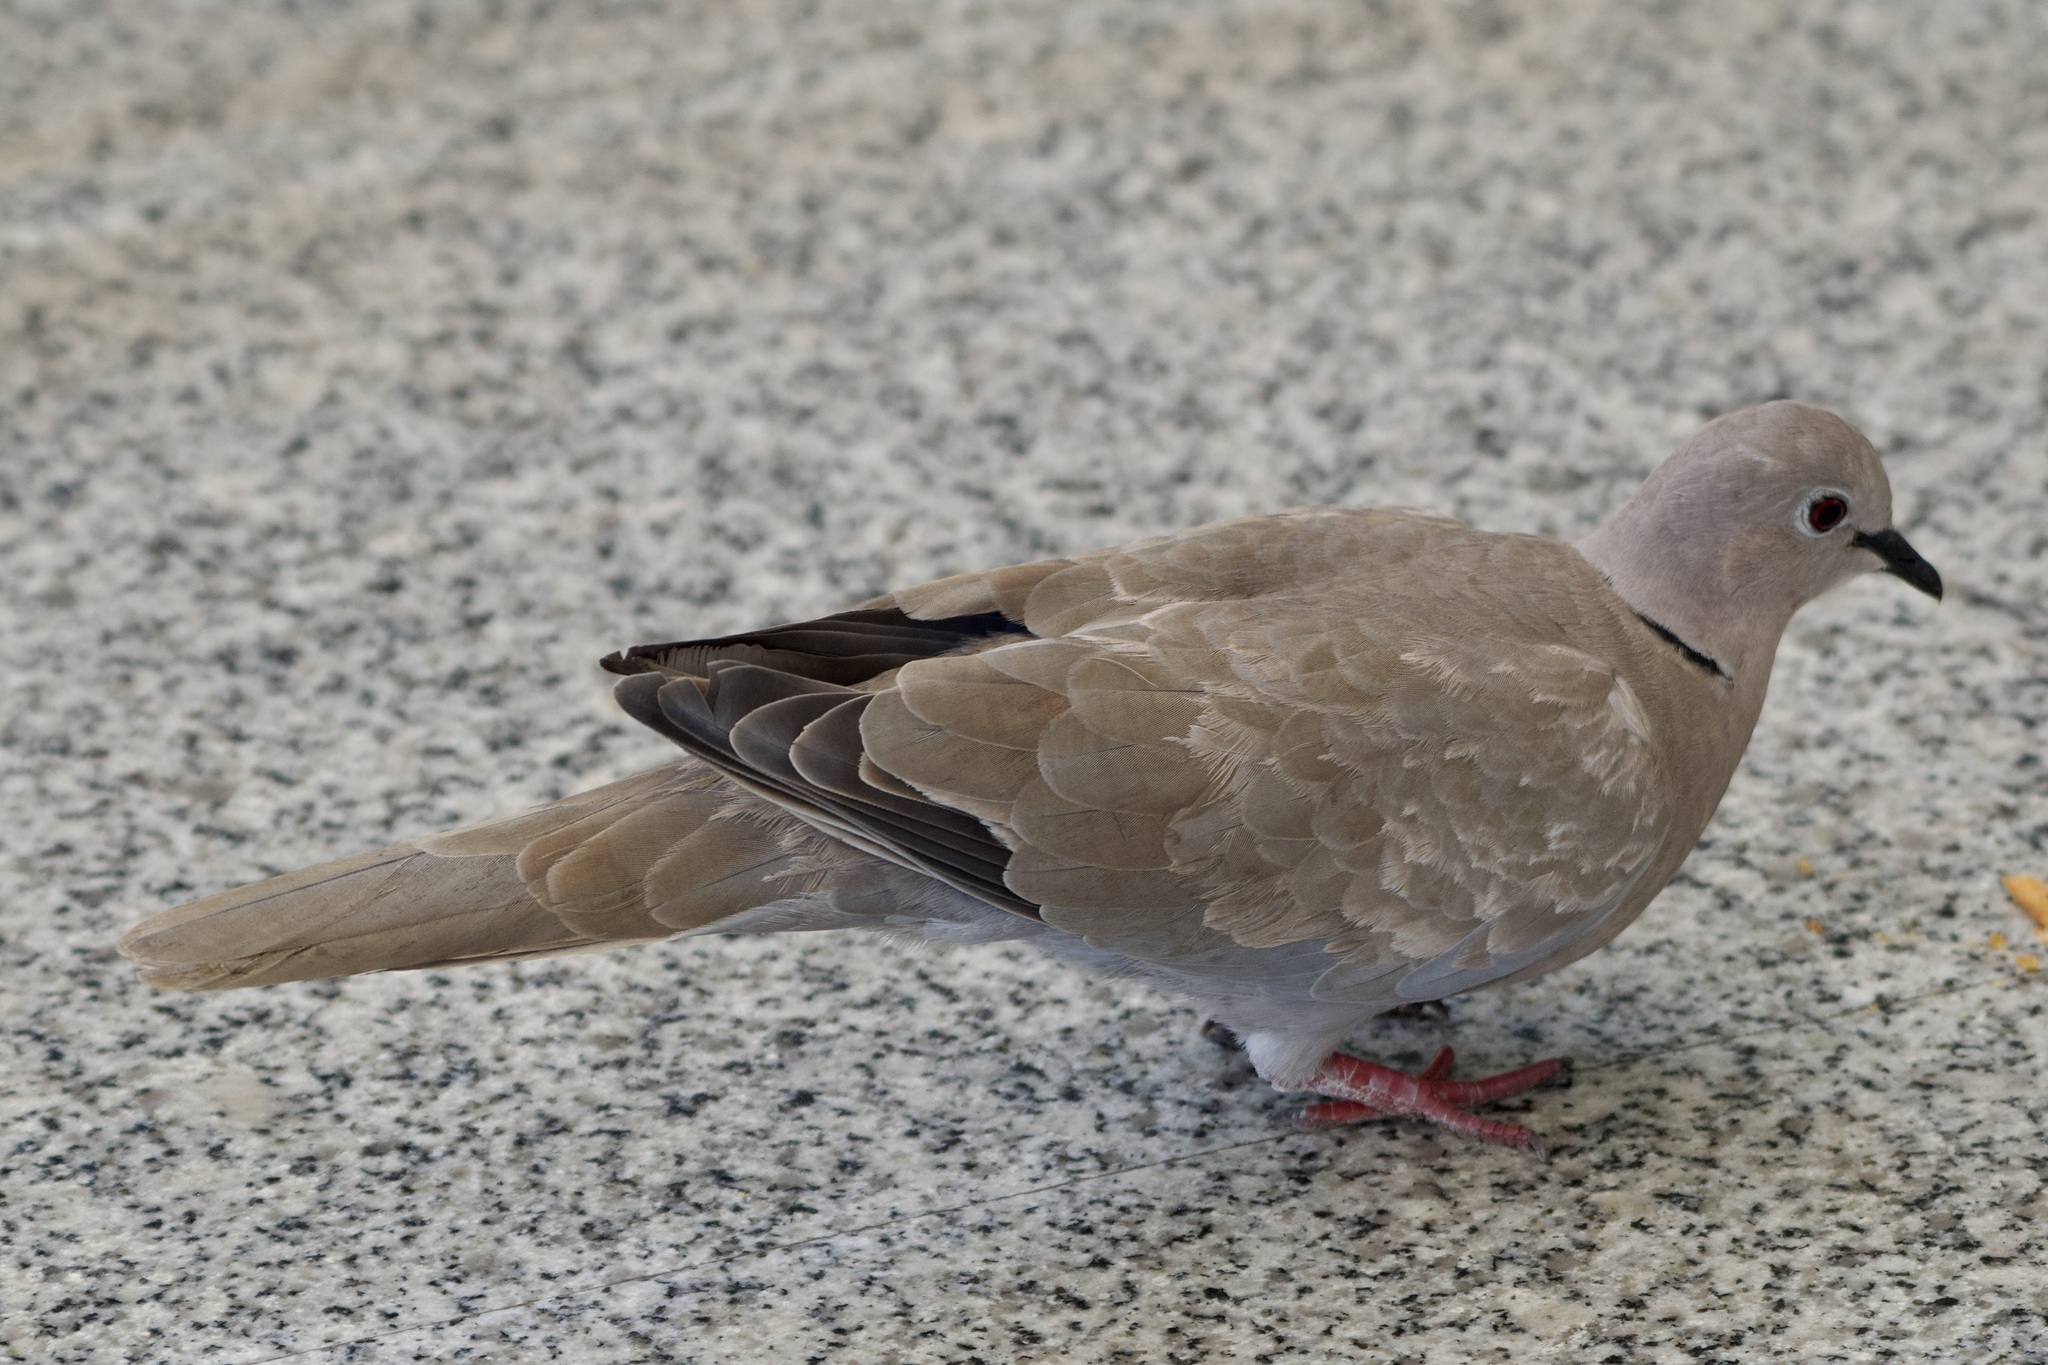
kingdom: Animalia
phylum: Chordata
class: Aves
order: Columbiformes
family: Columbidae
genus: Streptopelia
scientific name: Streptopelia decaocto
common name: Eurasian collared dove
